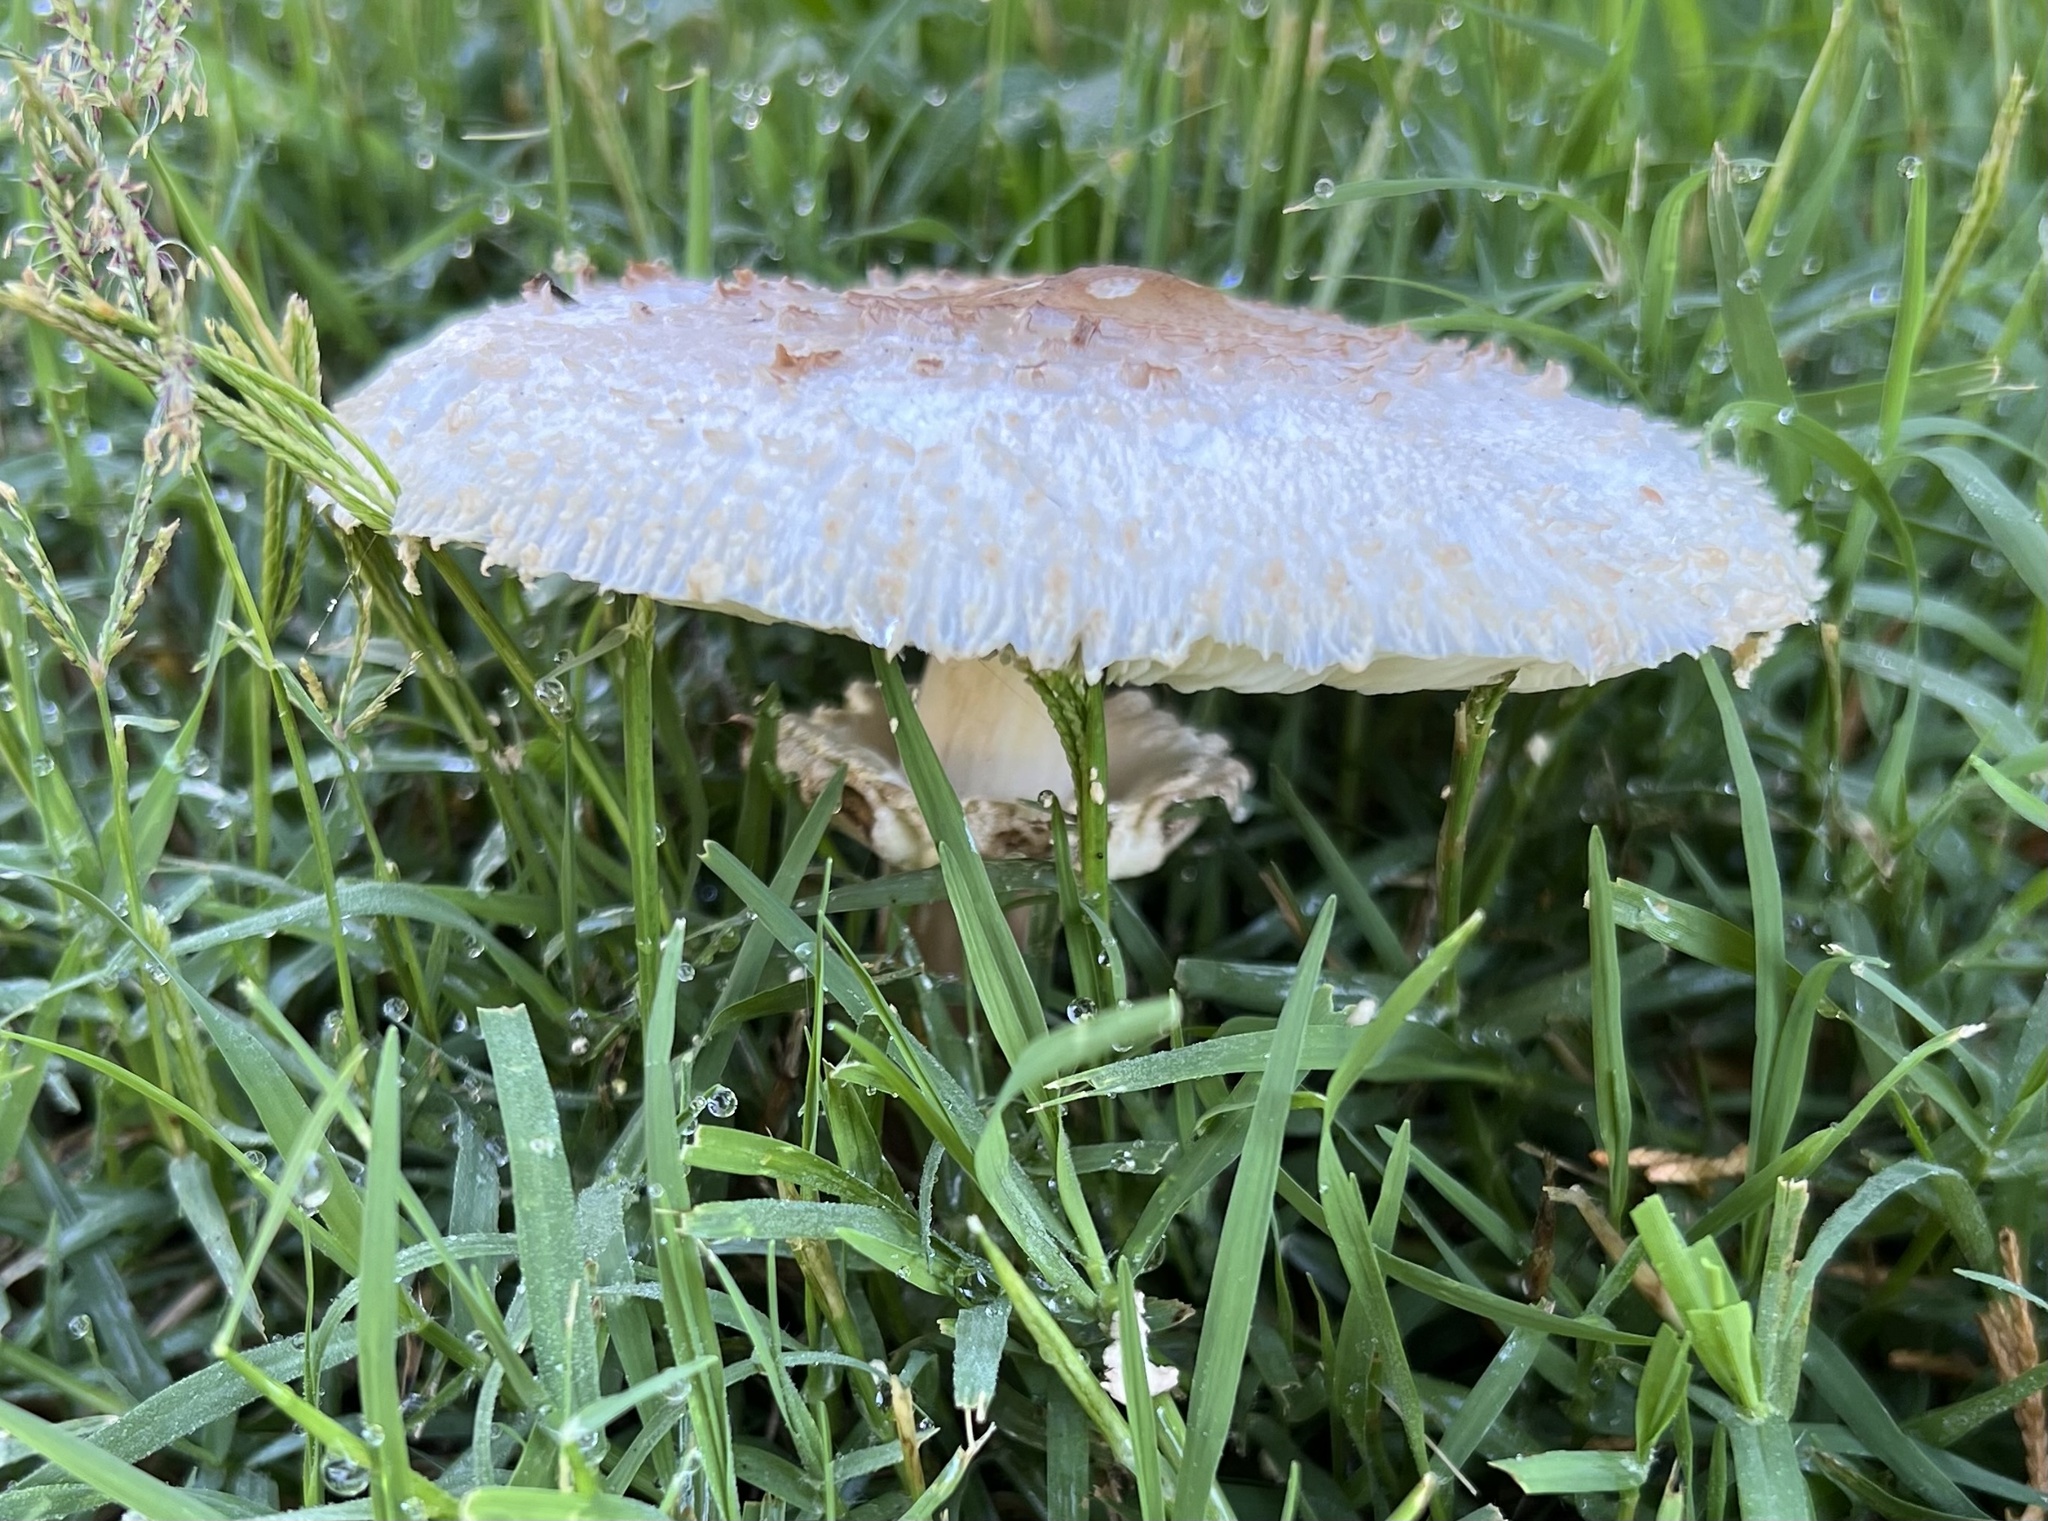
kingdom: Fungi
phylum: Basidiomycota
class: Agaricomycetes
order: Agaricales
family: Agaricaceae
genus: Chlorophyllum
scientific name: Chlorophyllum molybdites
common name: False parasol
